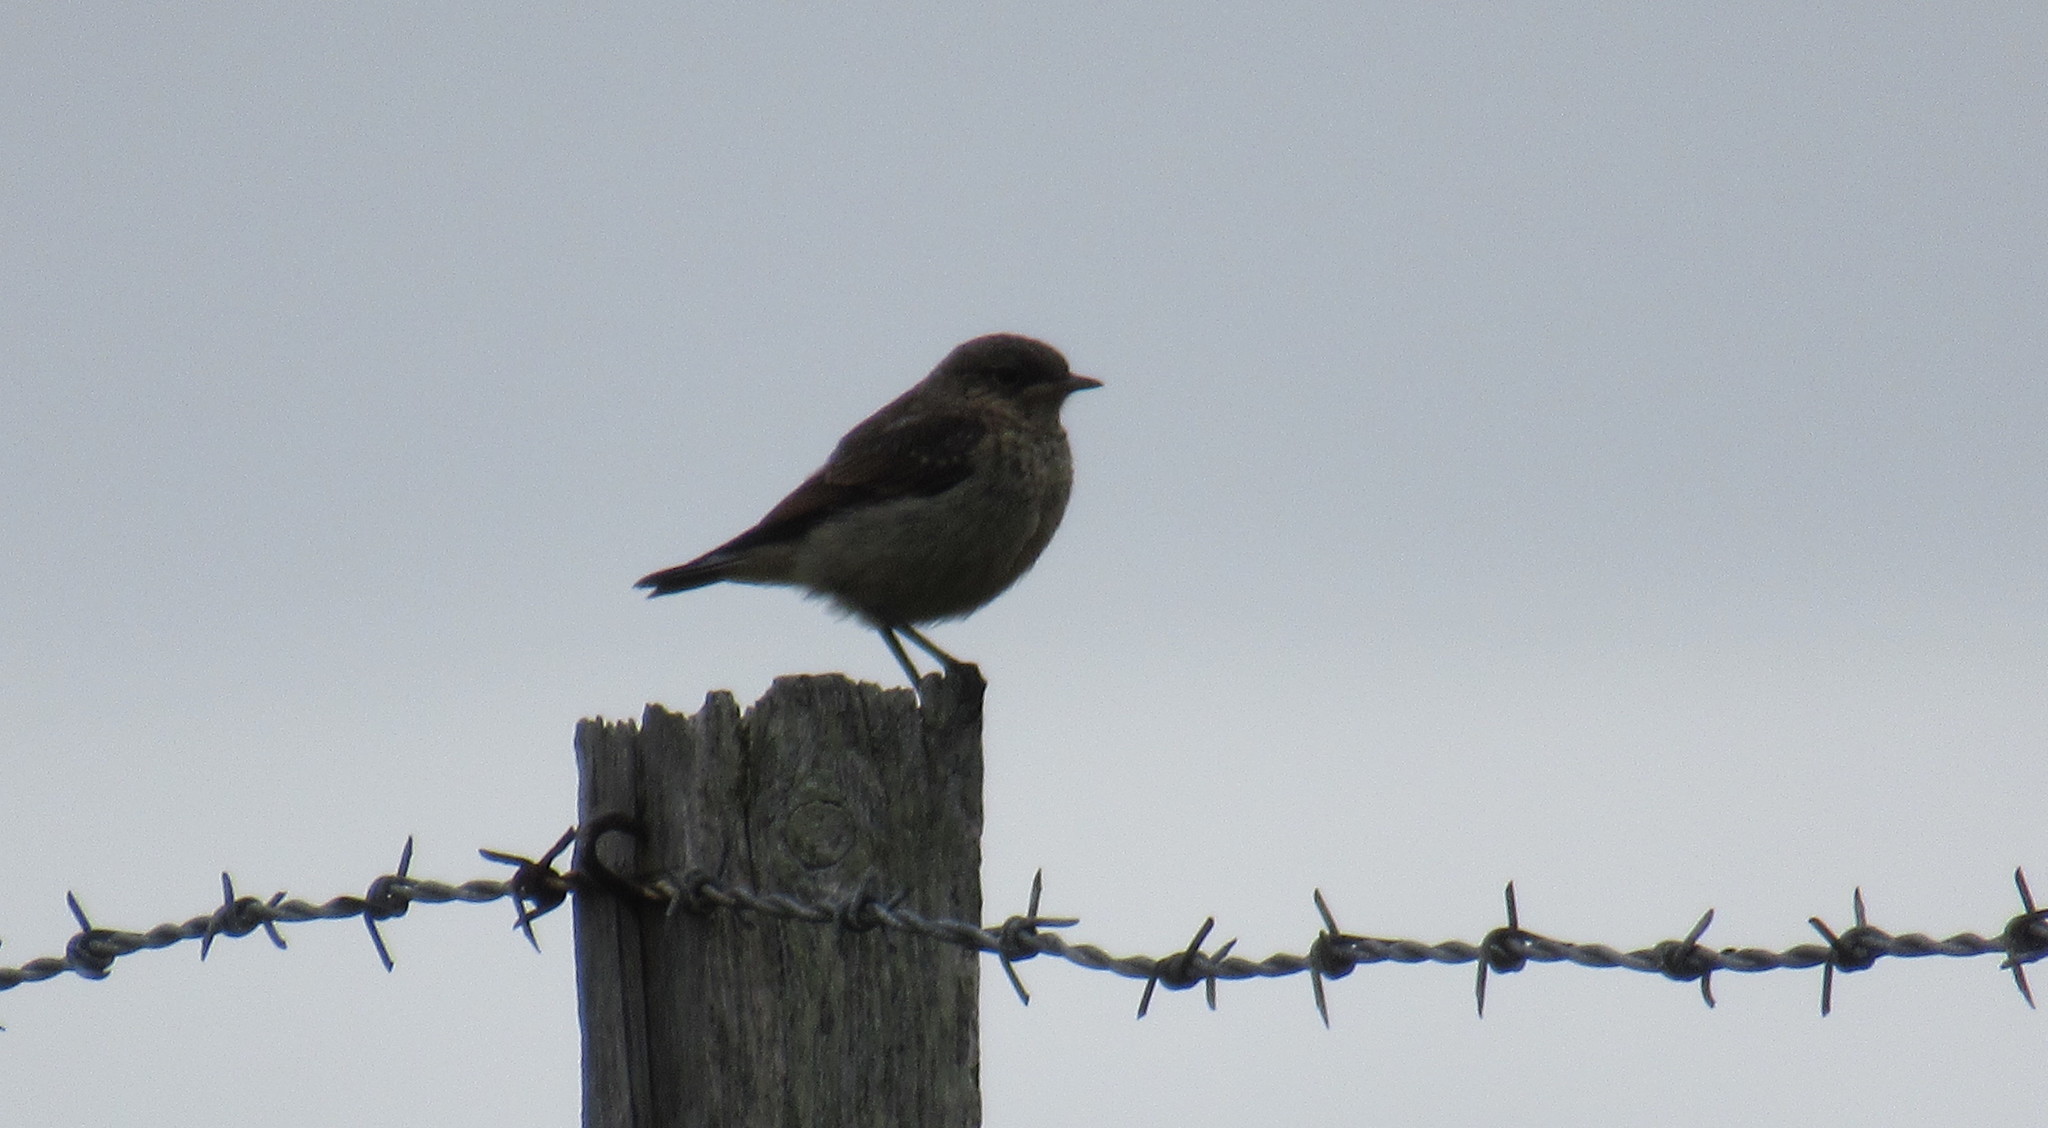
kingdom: Animalia
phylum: Chordata
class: Aves
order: Passeriformes
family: Muscicapidae
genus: Oenanthe
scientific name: Oenanthe oenanthe
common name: Northern wheatear
